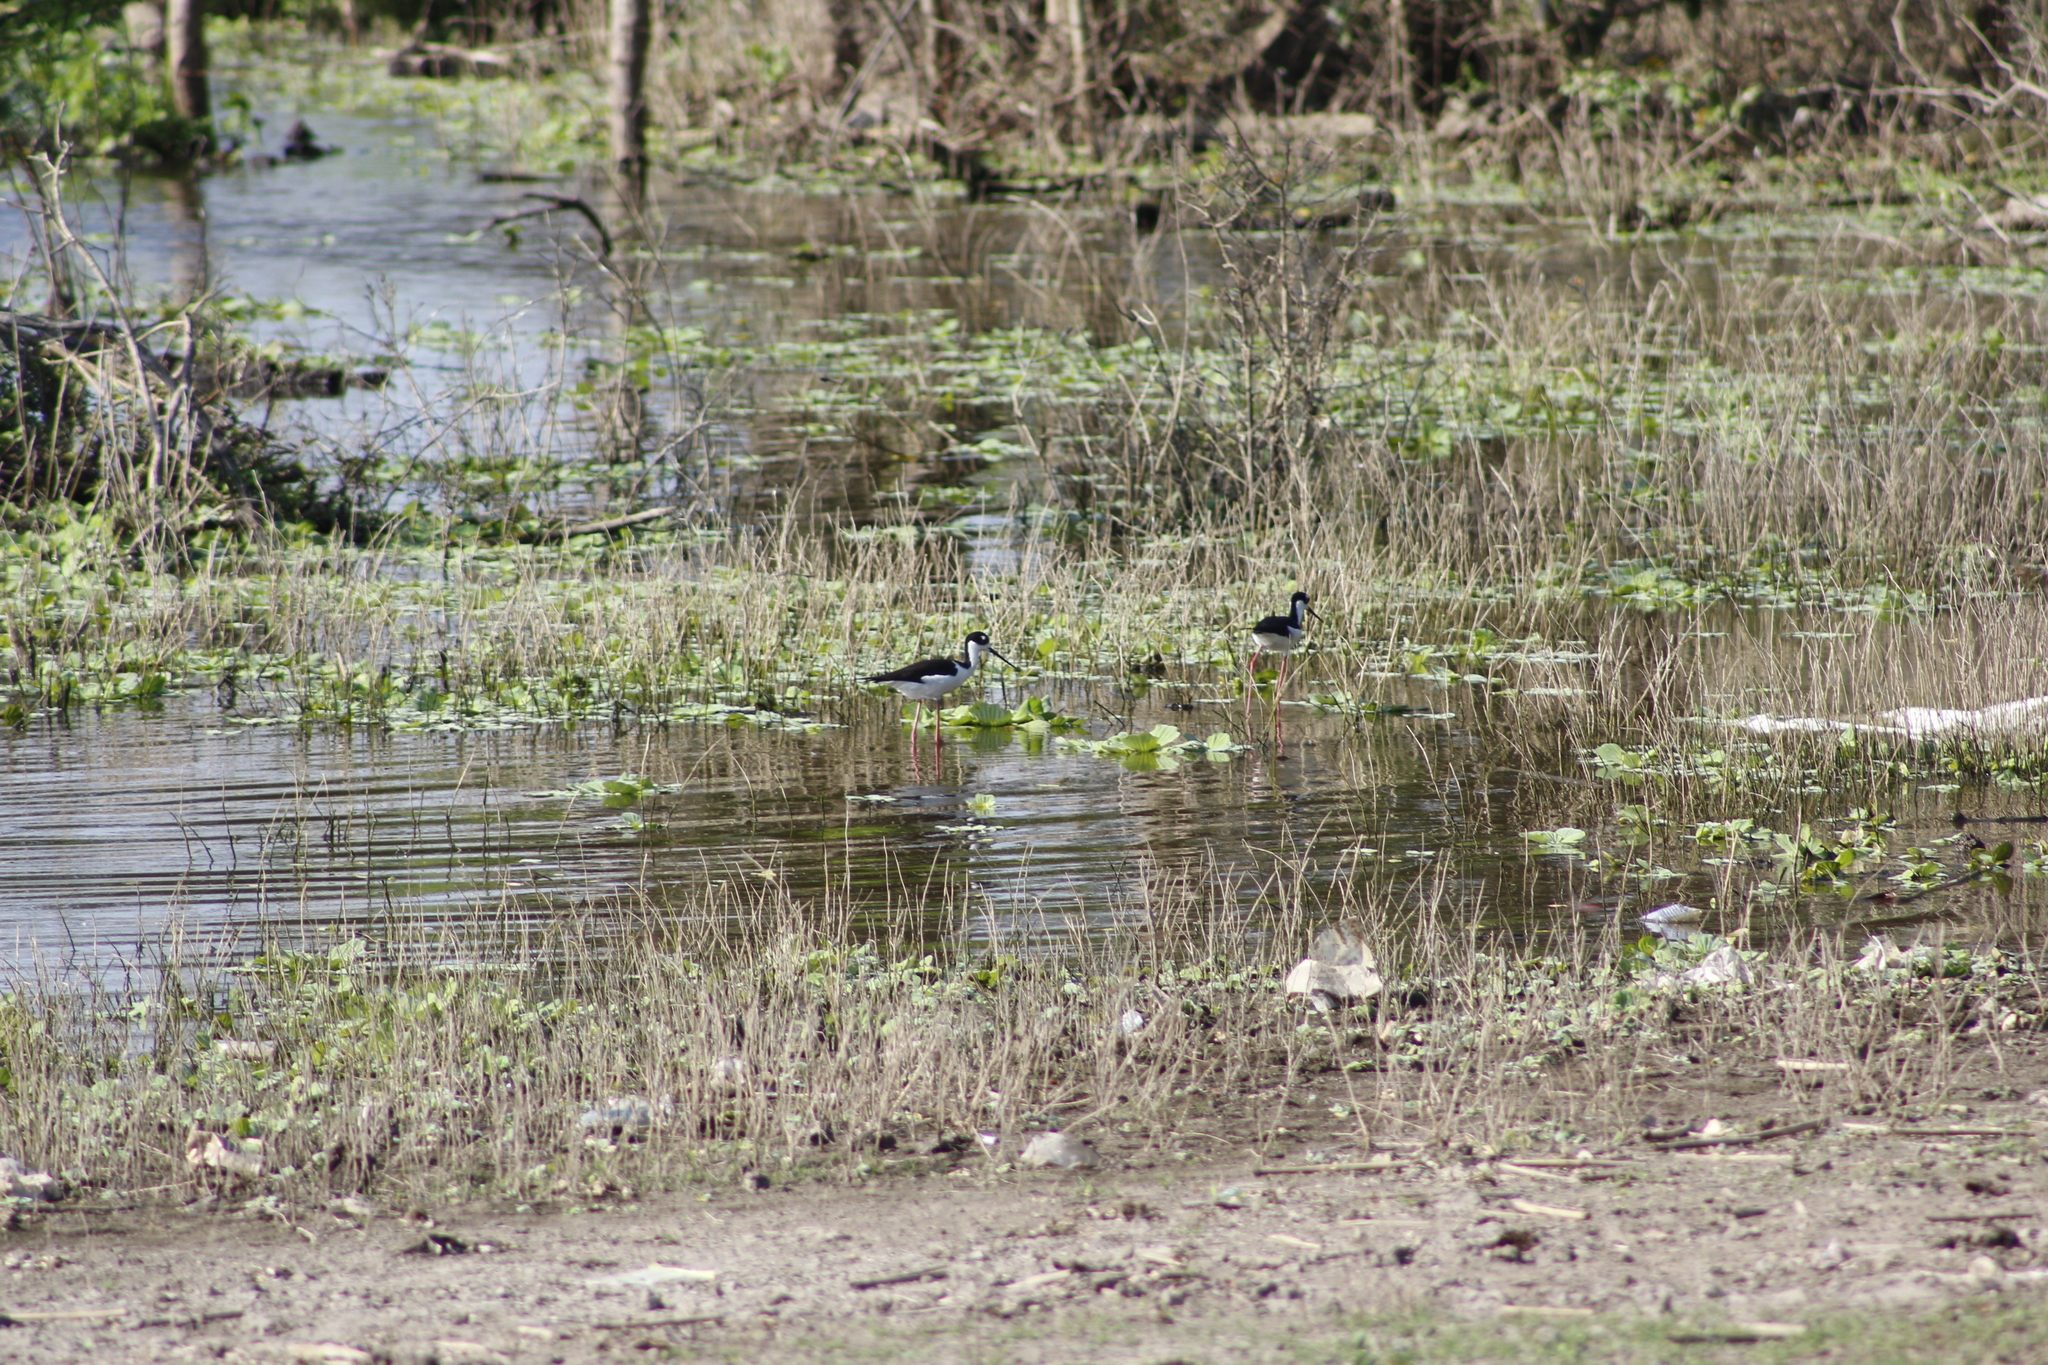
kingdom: Animalia
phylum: Chordata
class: Aves
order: Charadriiformes
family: Recurvirostridae
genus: Himantopus
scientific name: Himantopus mexicanus
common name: Black-necked stilt
